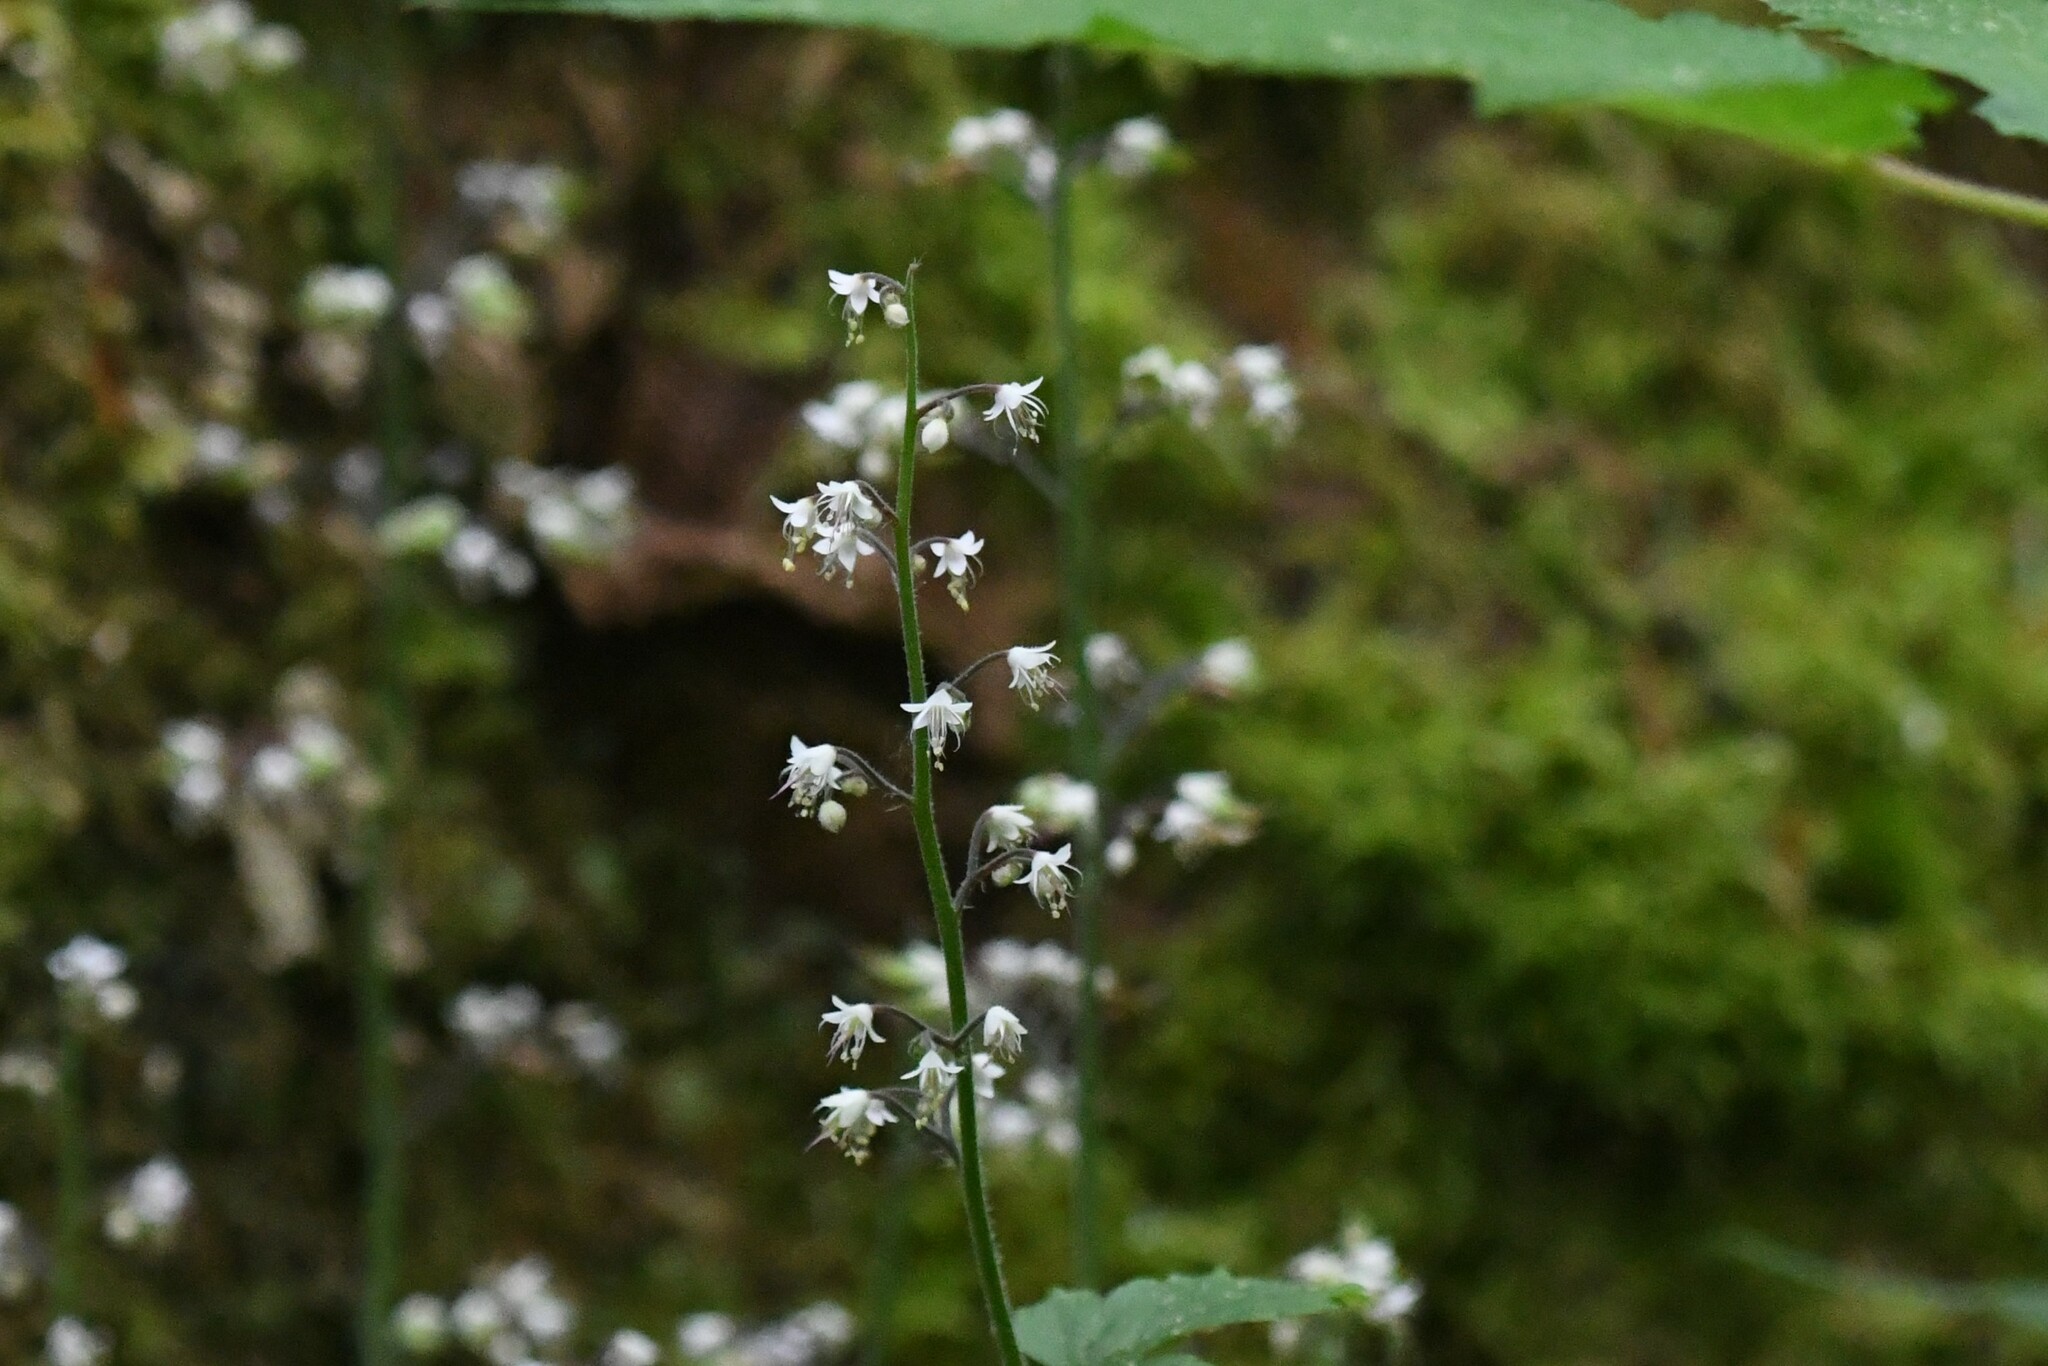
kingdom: Plantae
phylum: Tracheophyta
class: Magnoliopsida
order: Saxifragales
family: Saxifragaceae
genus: Tiarella
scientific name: Tiarella trifoliata
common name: Sugar-scoop
